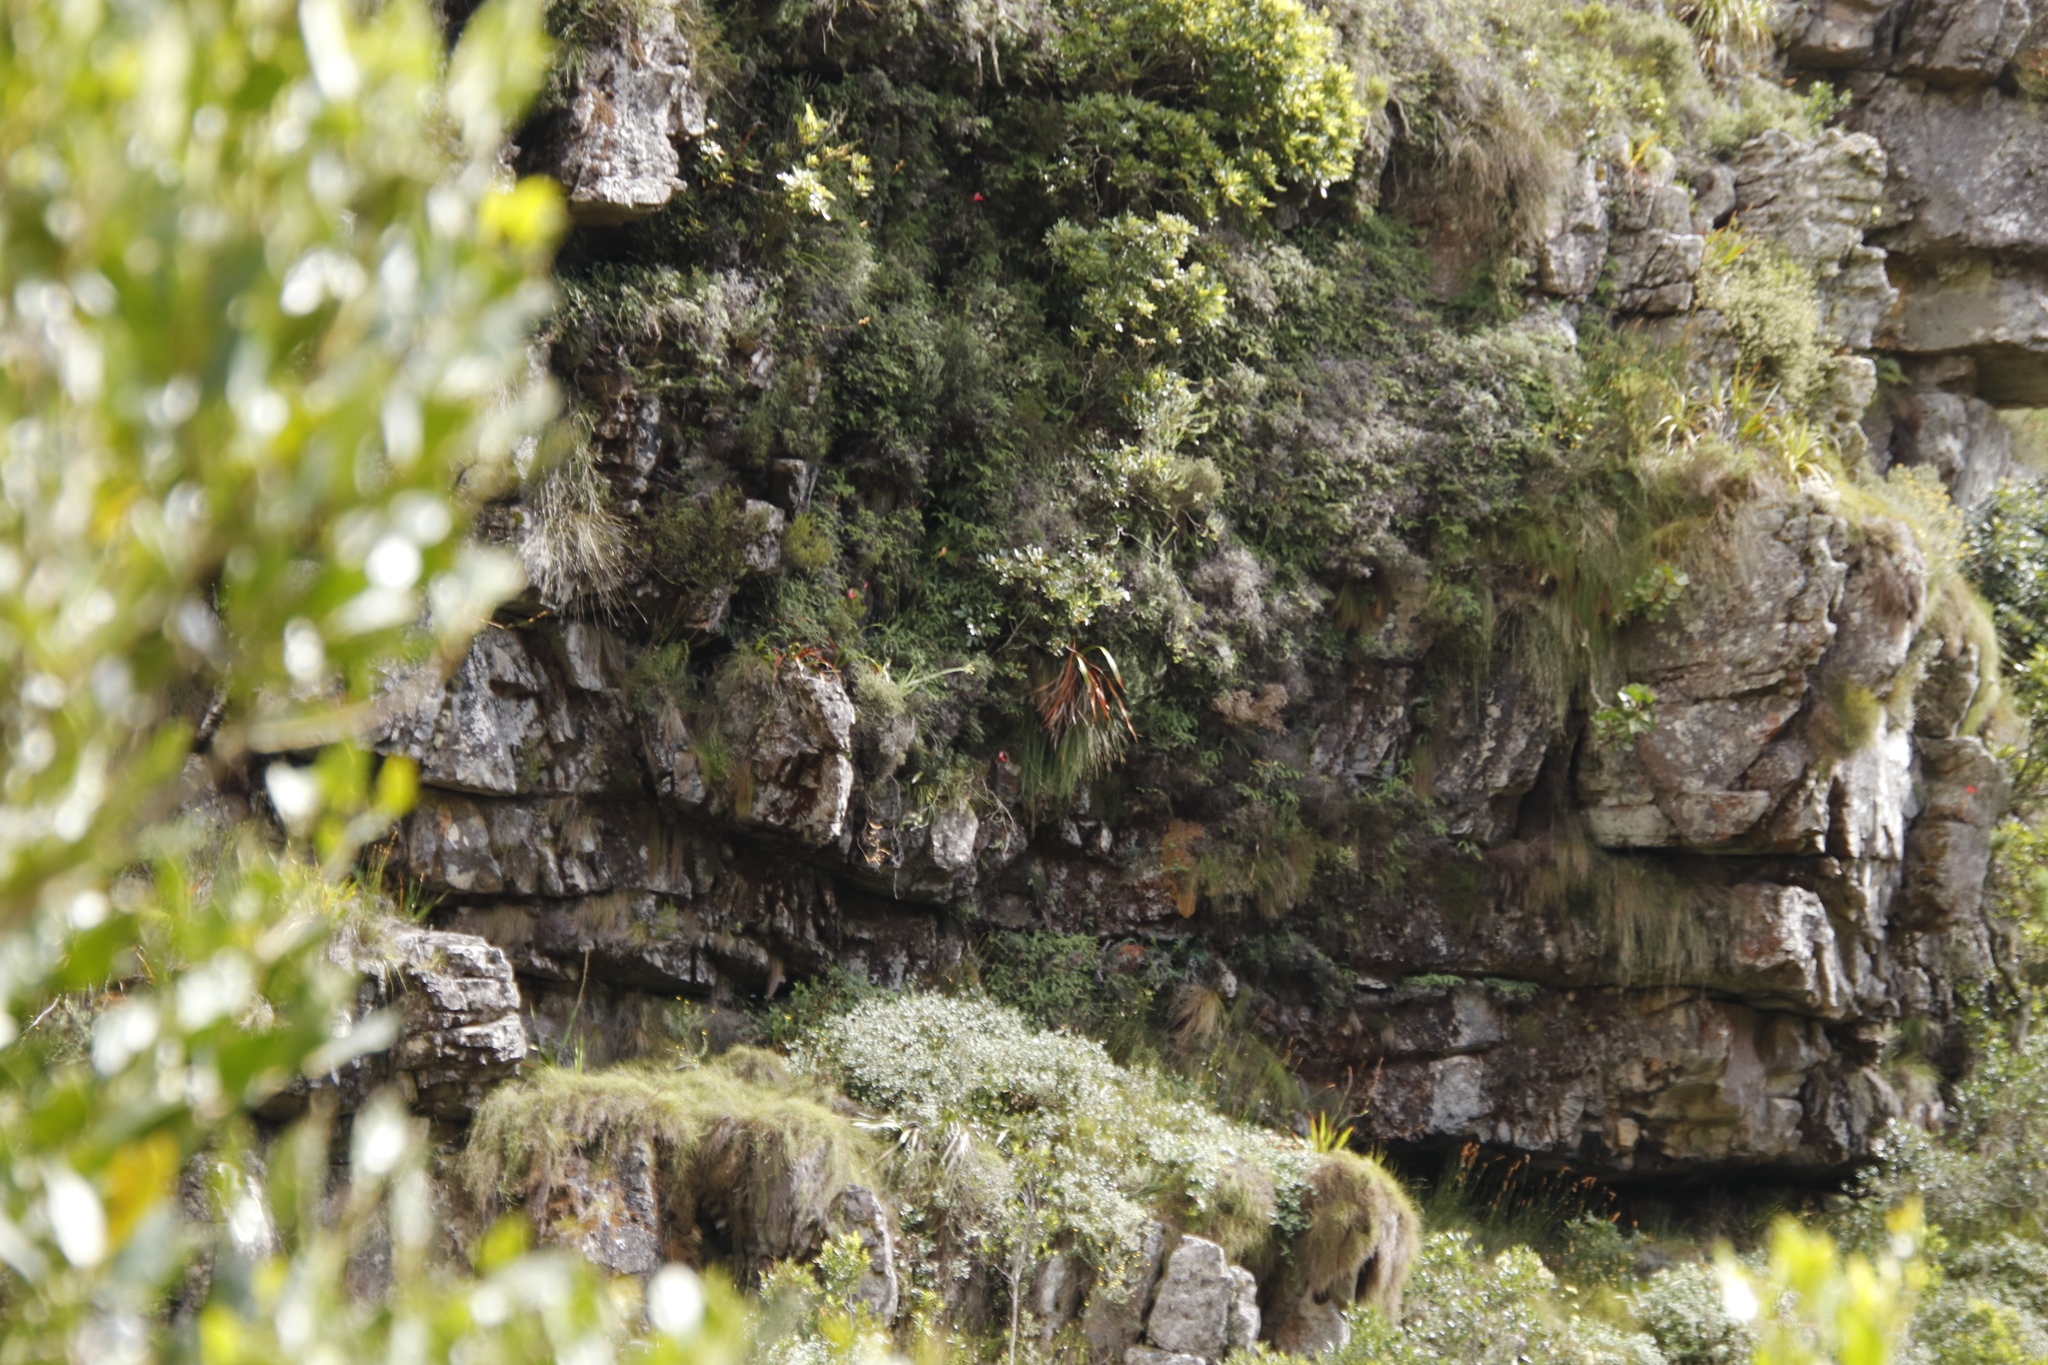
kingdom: Plantae
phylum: Tracheophyta
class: Liliopsida
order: Asparagales
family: Orchidaceae
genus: Disa
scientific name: Disa uniflora
